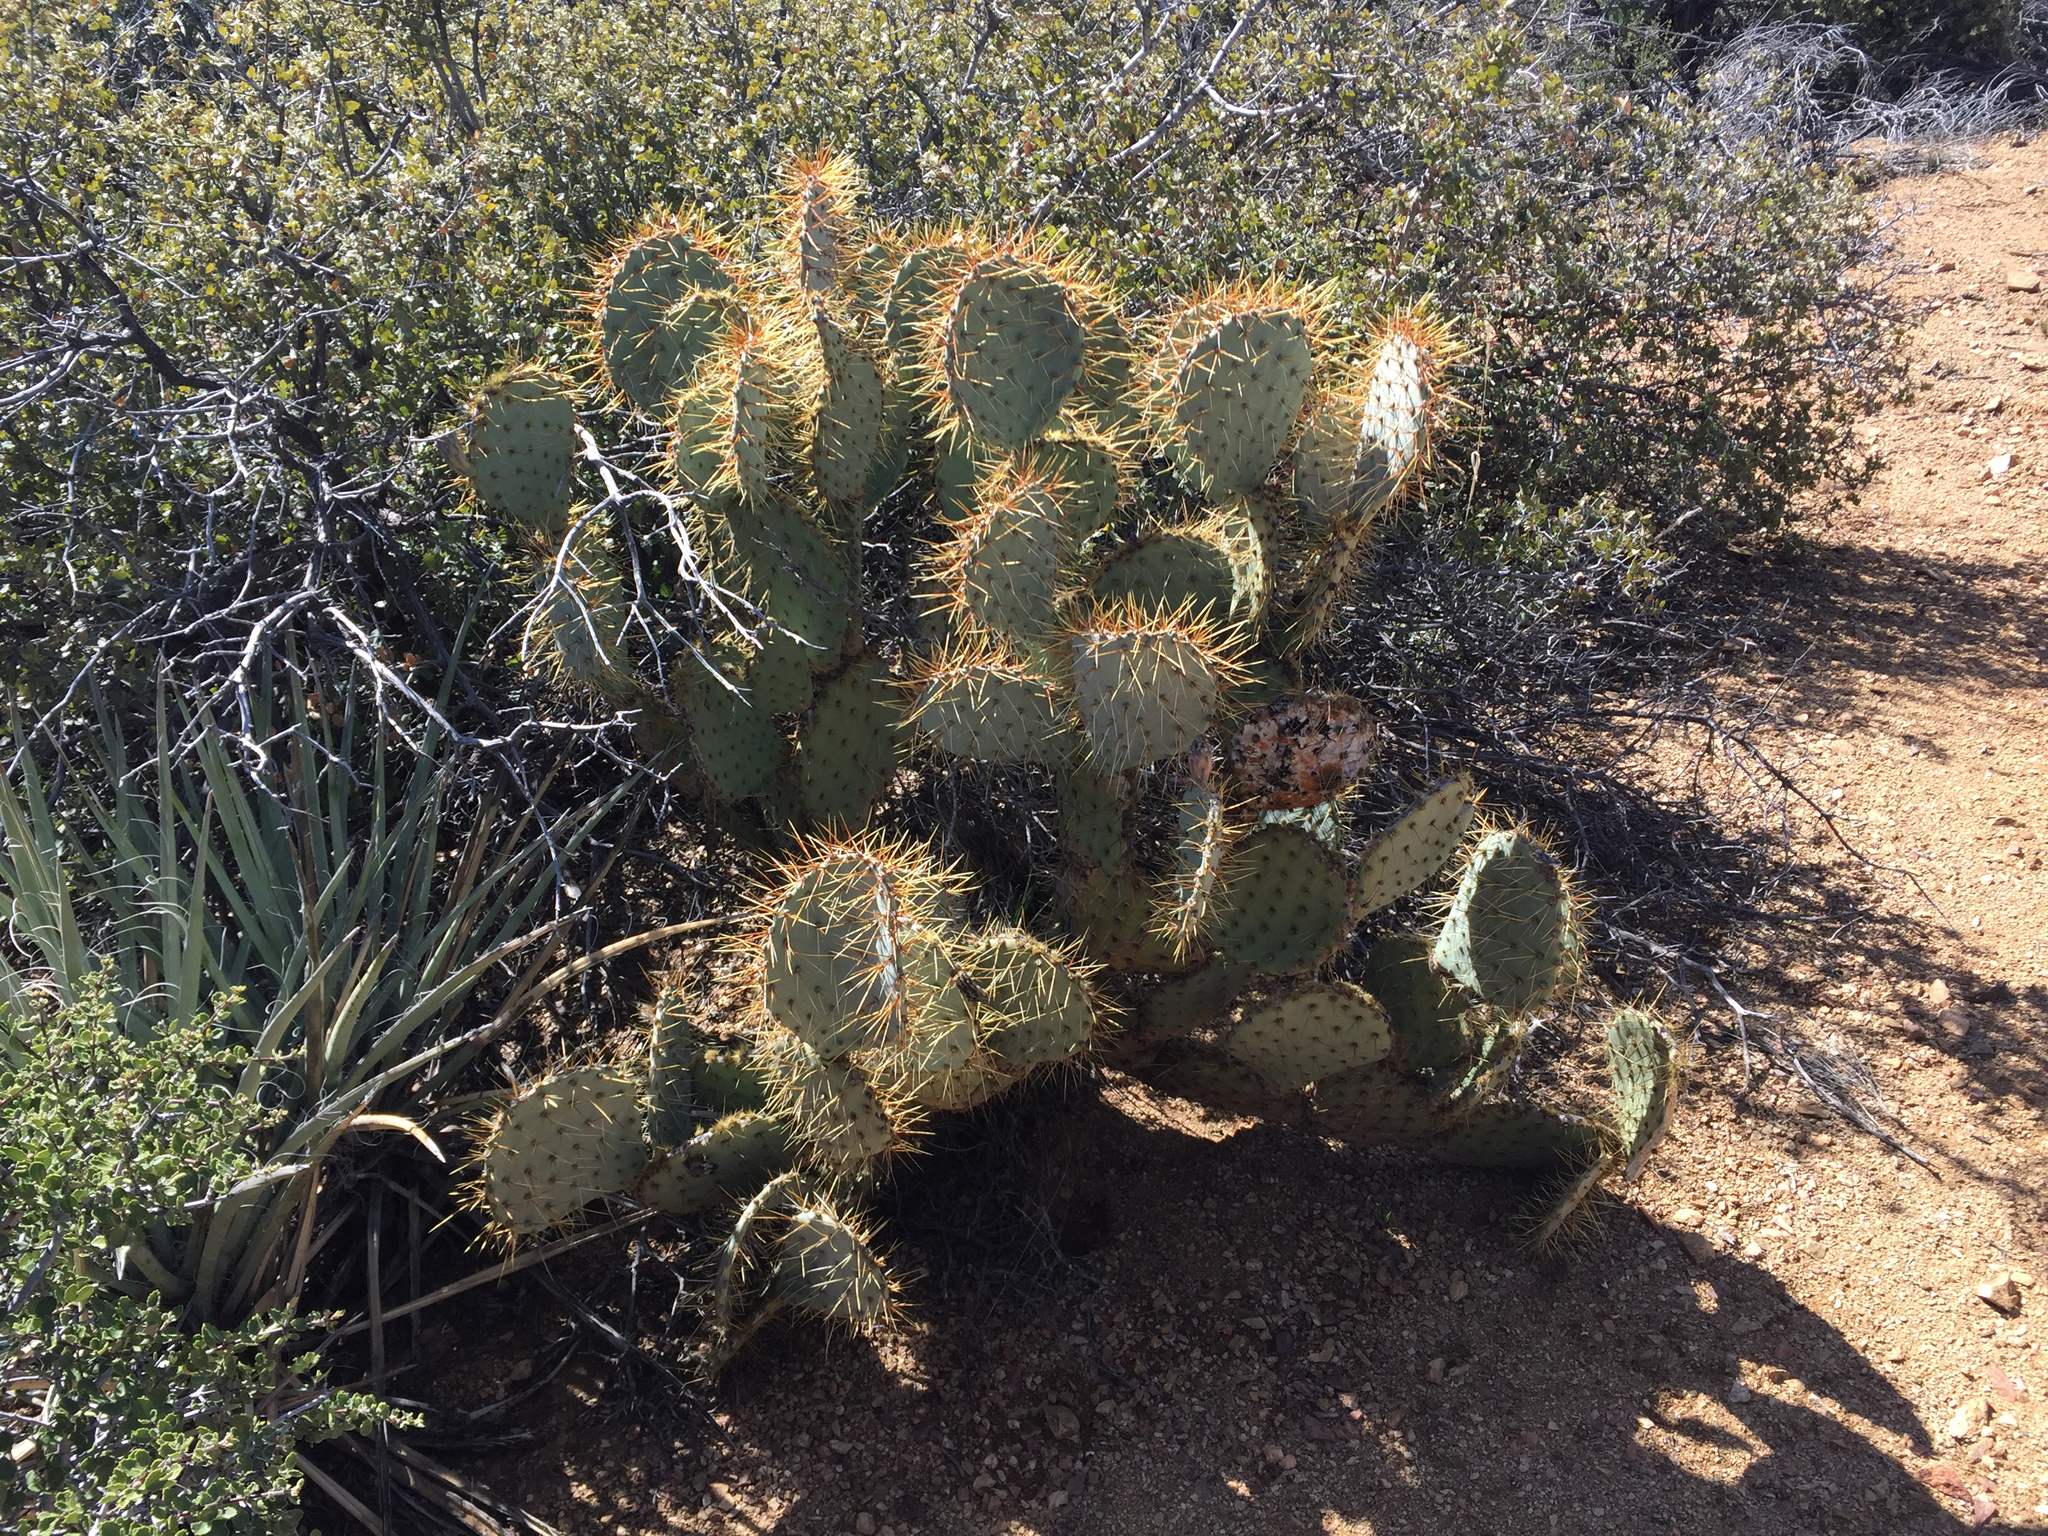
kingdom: Plantae
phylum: Tracheophyta
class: Magnoliopsida
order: Caryophyllales
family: Cactaceae
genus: Opuntia
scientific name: Opuntia curvispina
